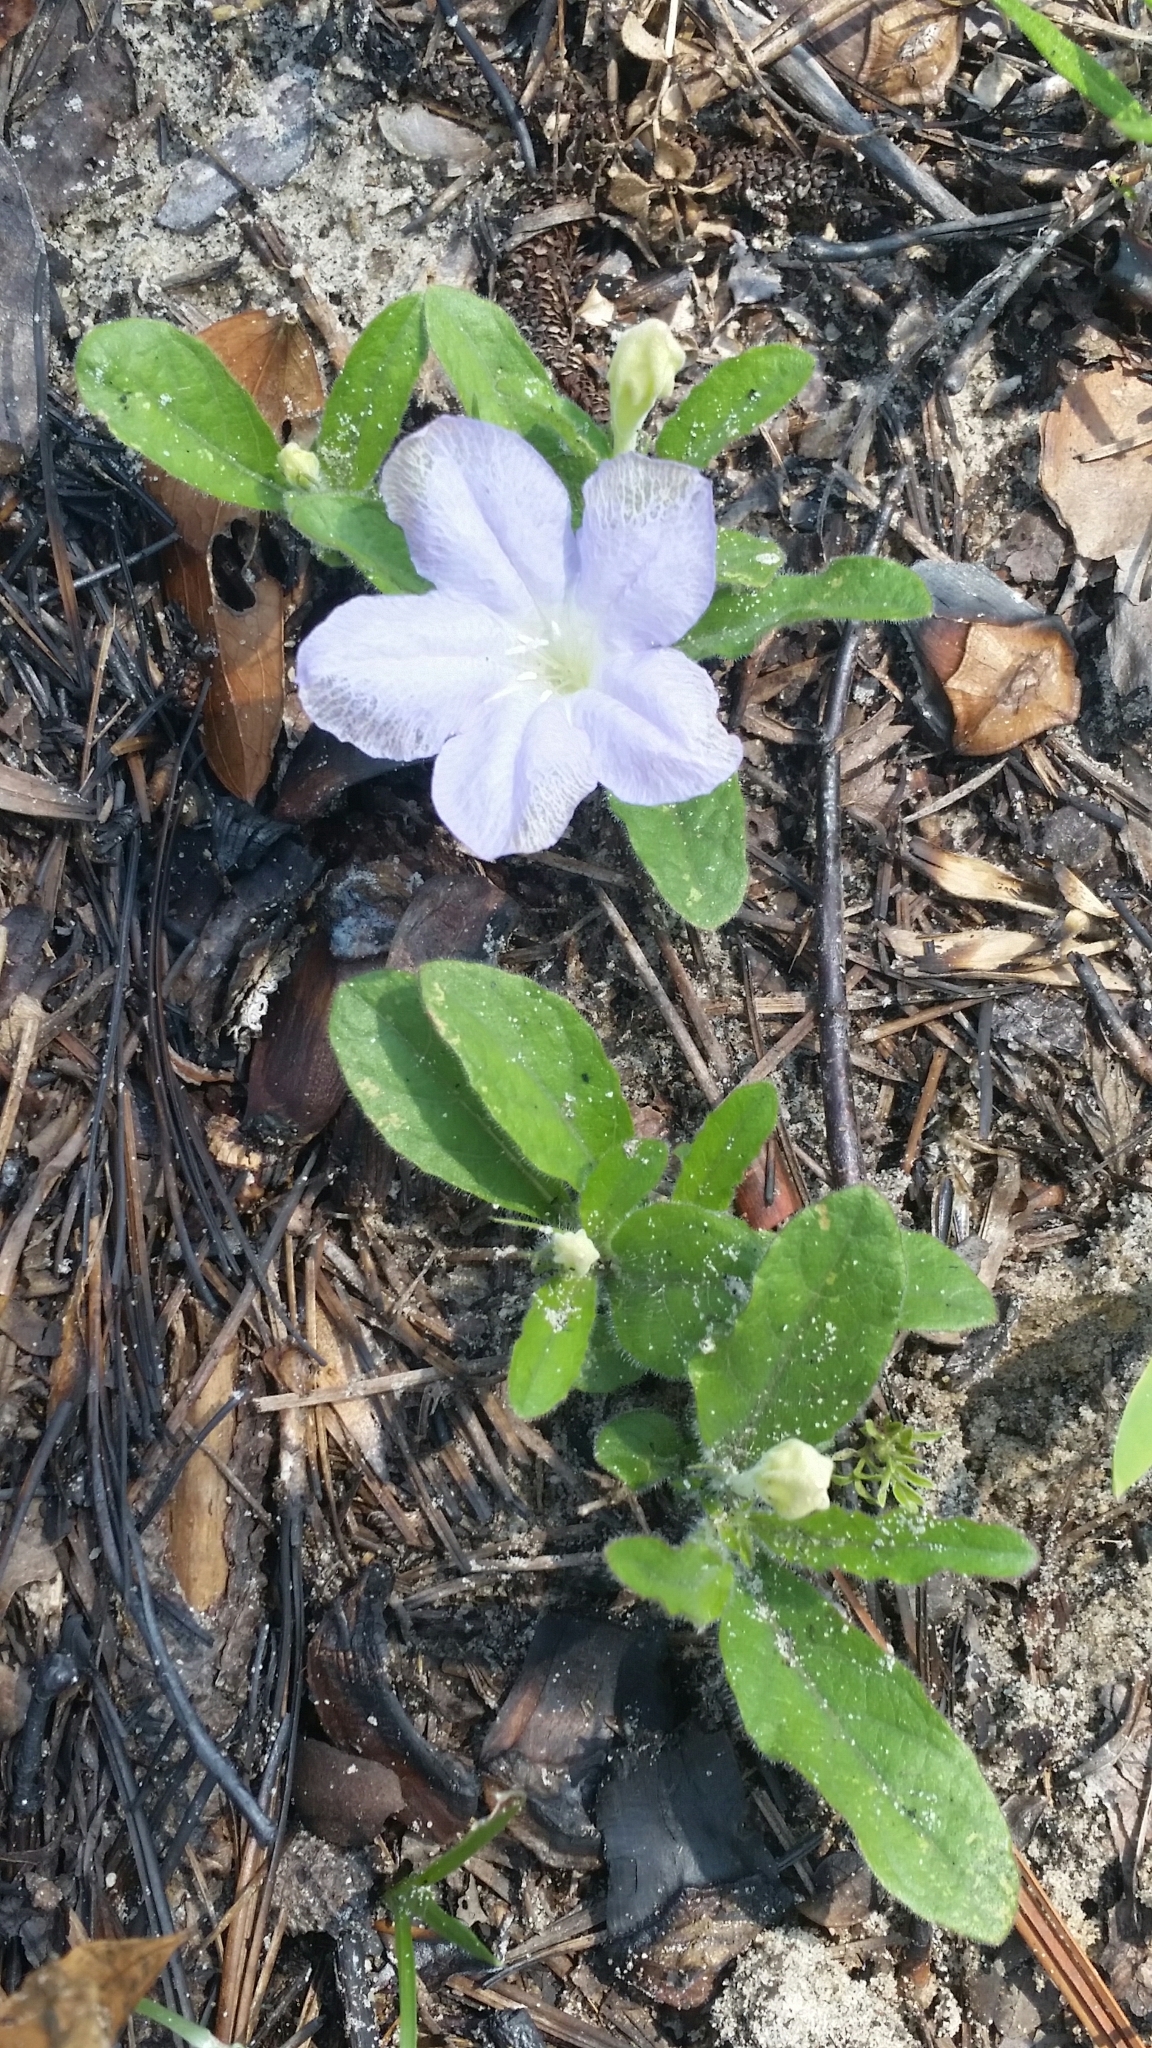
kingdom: Plantae
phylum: Tracheophyta
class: Magnoliopsida
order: Lamiales
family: Acanthaceae
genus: Ruellia
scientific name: Ruellia caroliniensis
